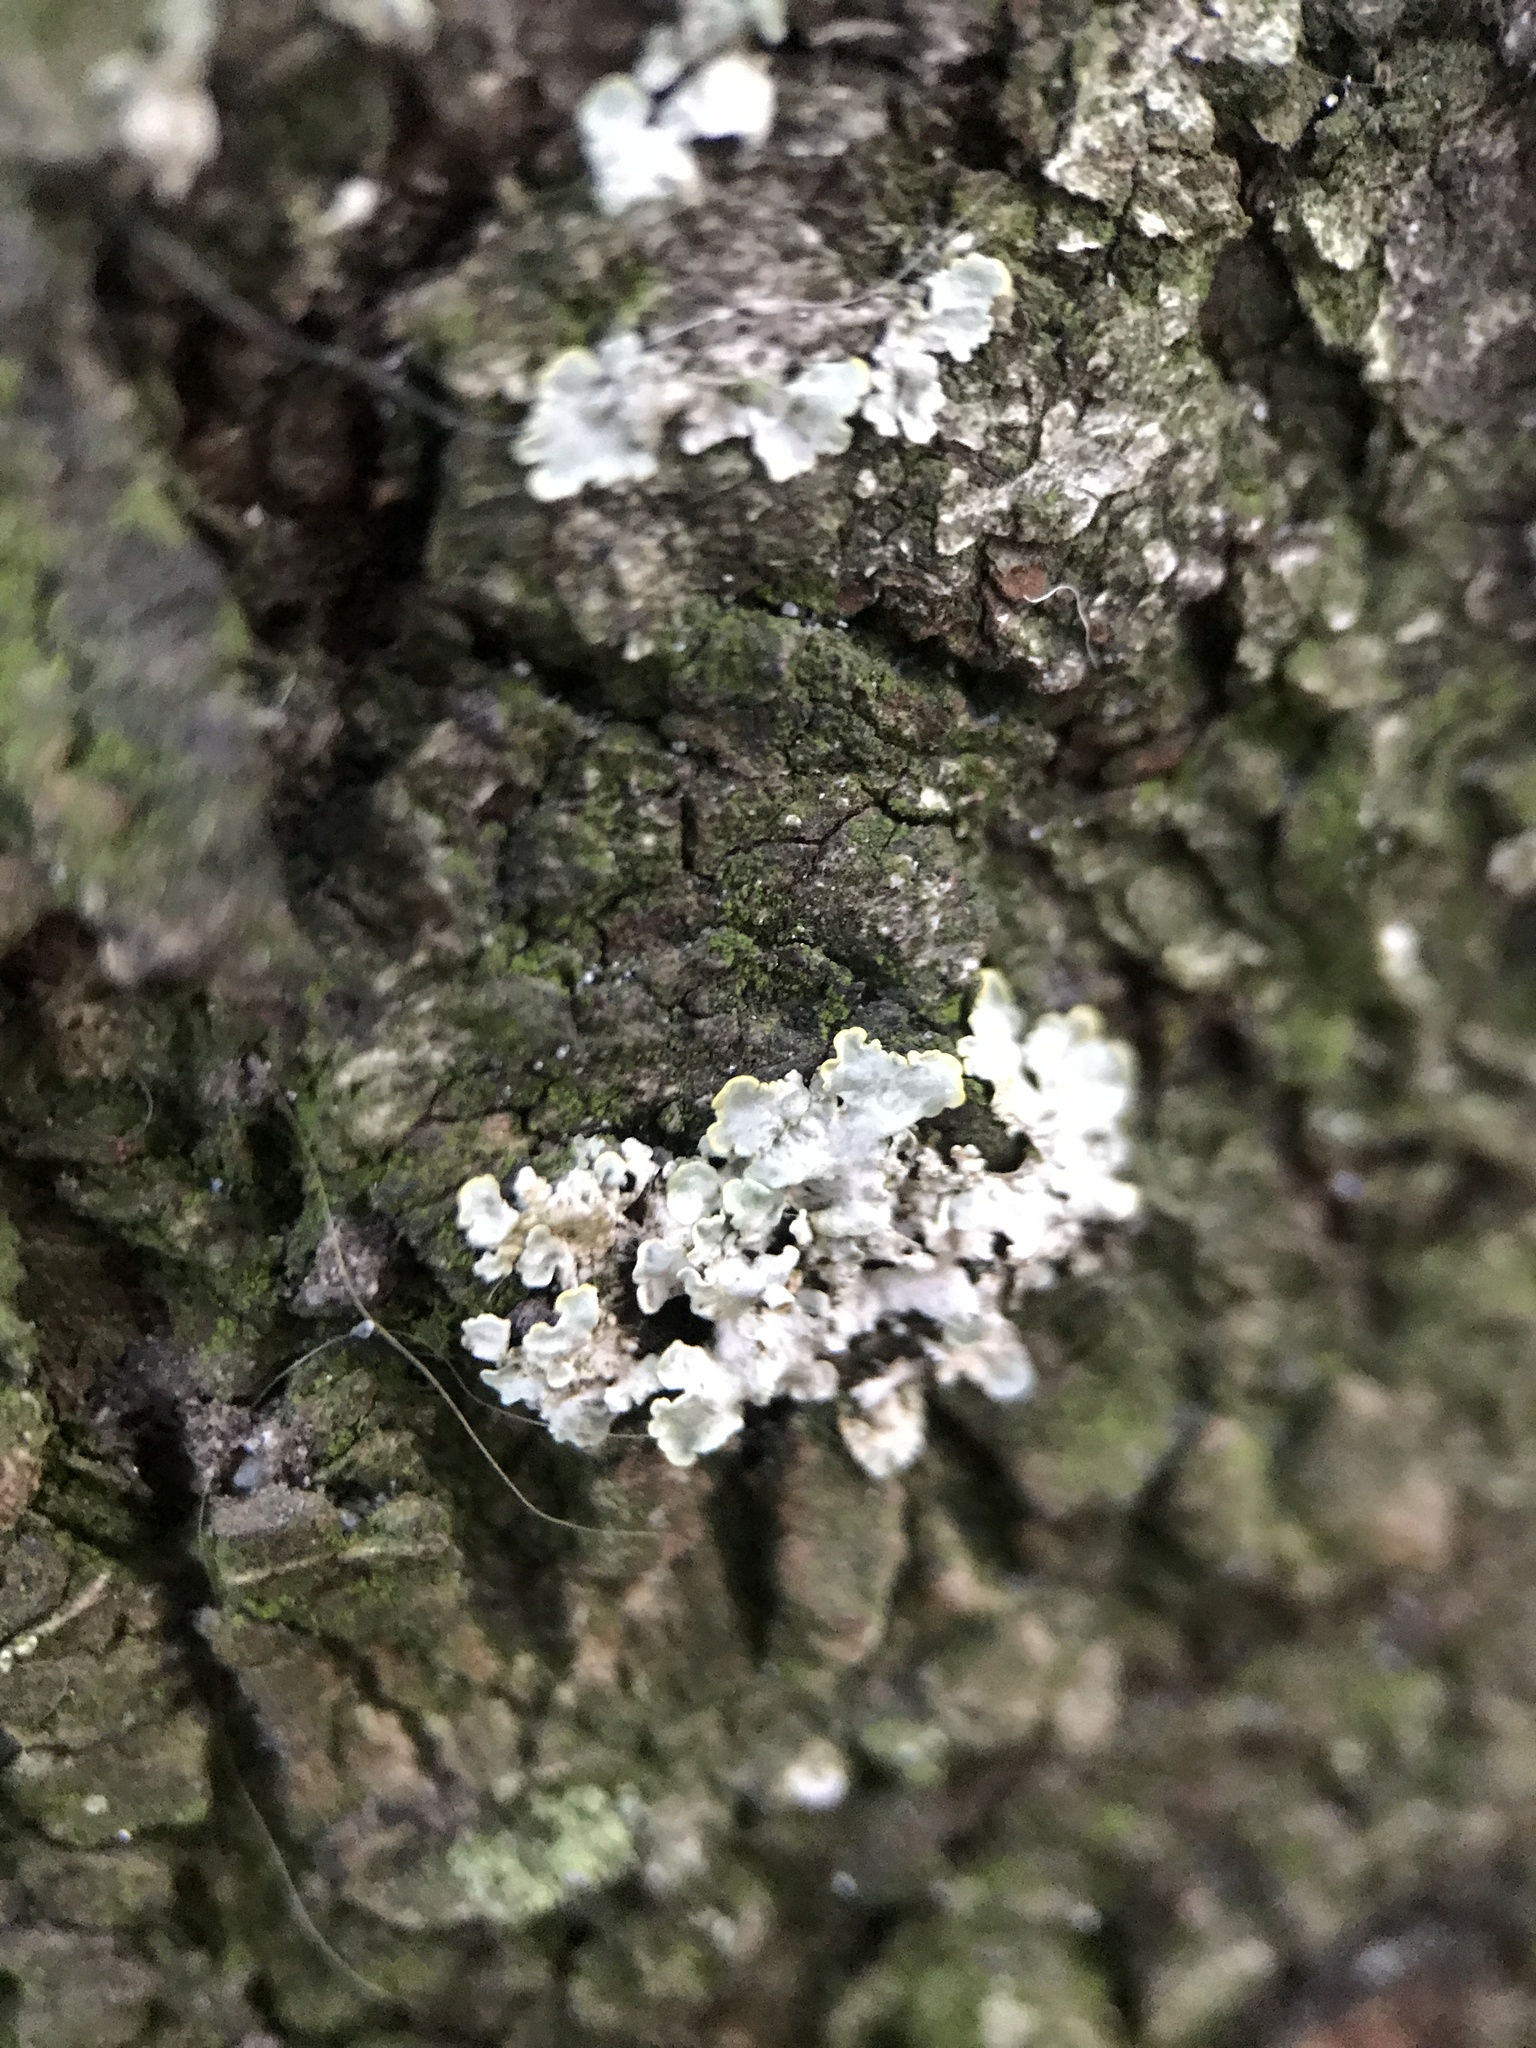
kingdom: Fungi
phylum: Ascomycota
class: Lecanoromycetes
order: Teloschistales
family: Teloschistaceae
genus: Xanthoria
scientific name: Xanthoria parietina
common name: Common orange lichen
